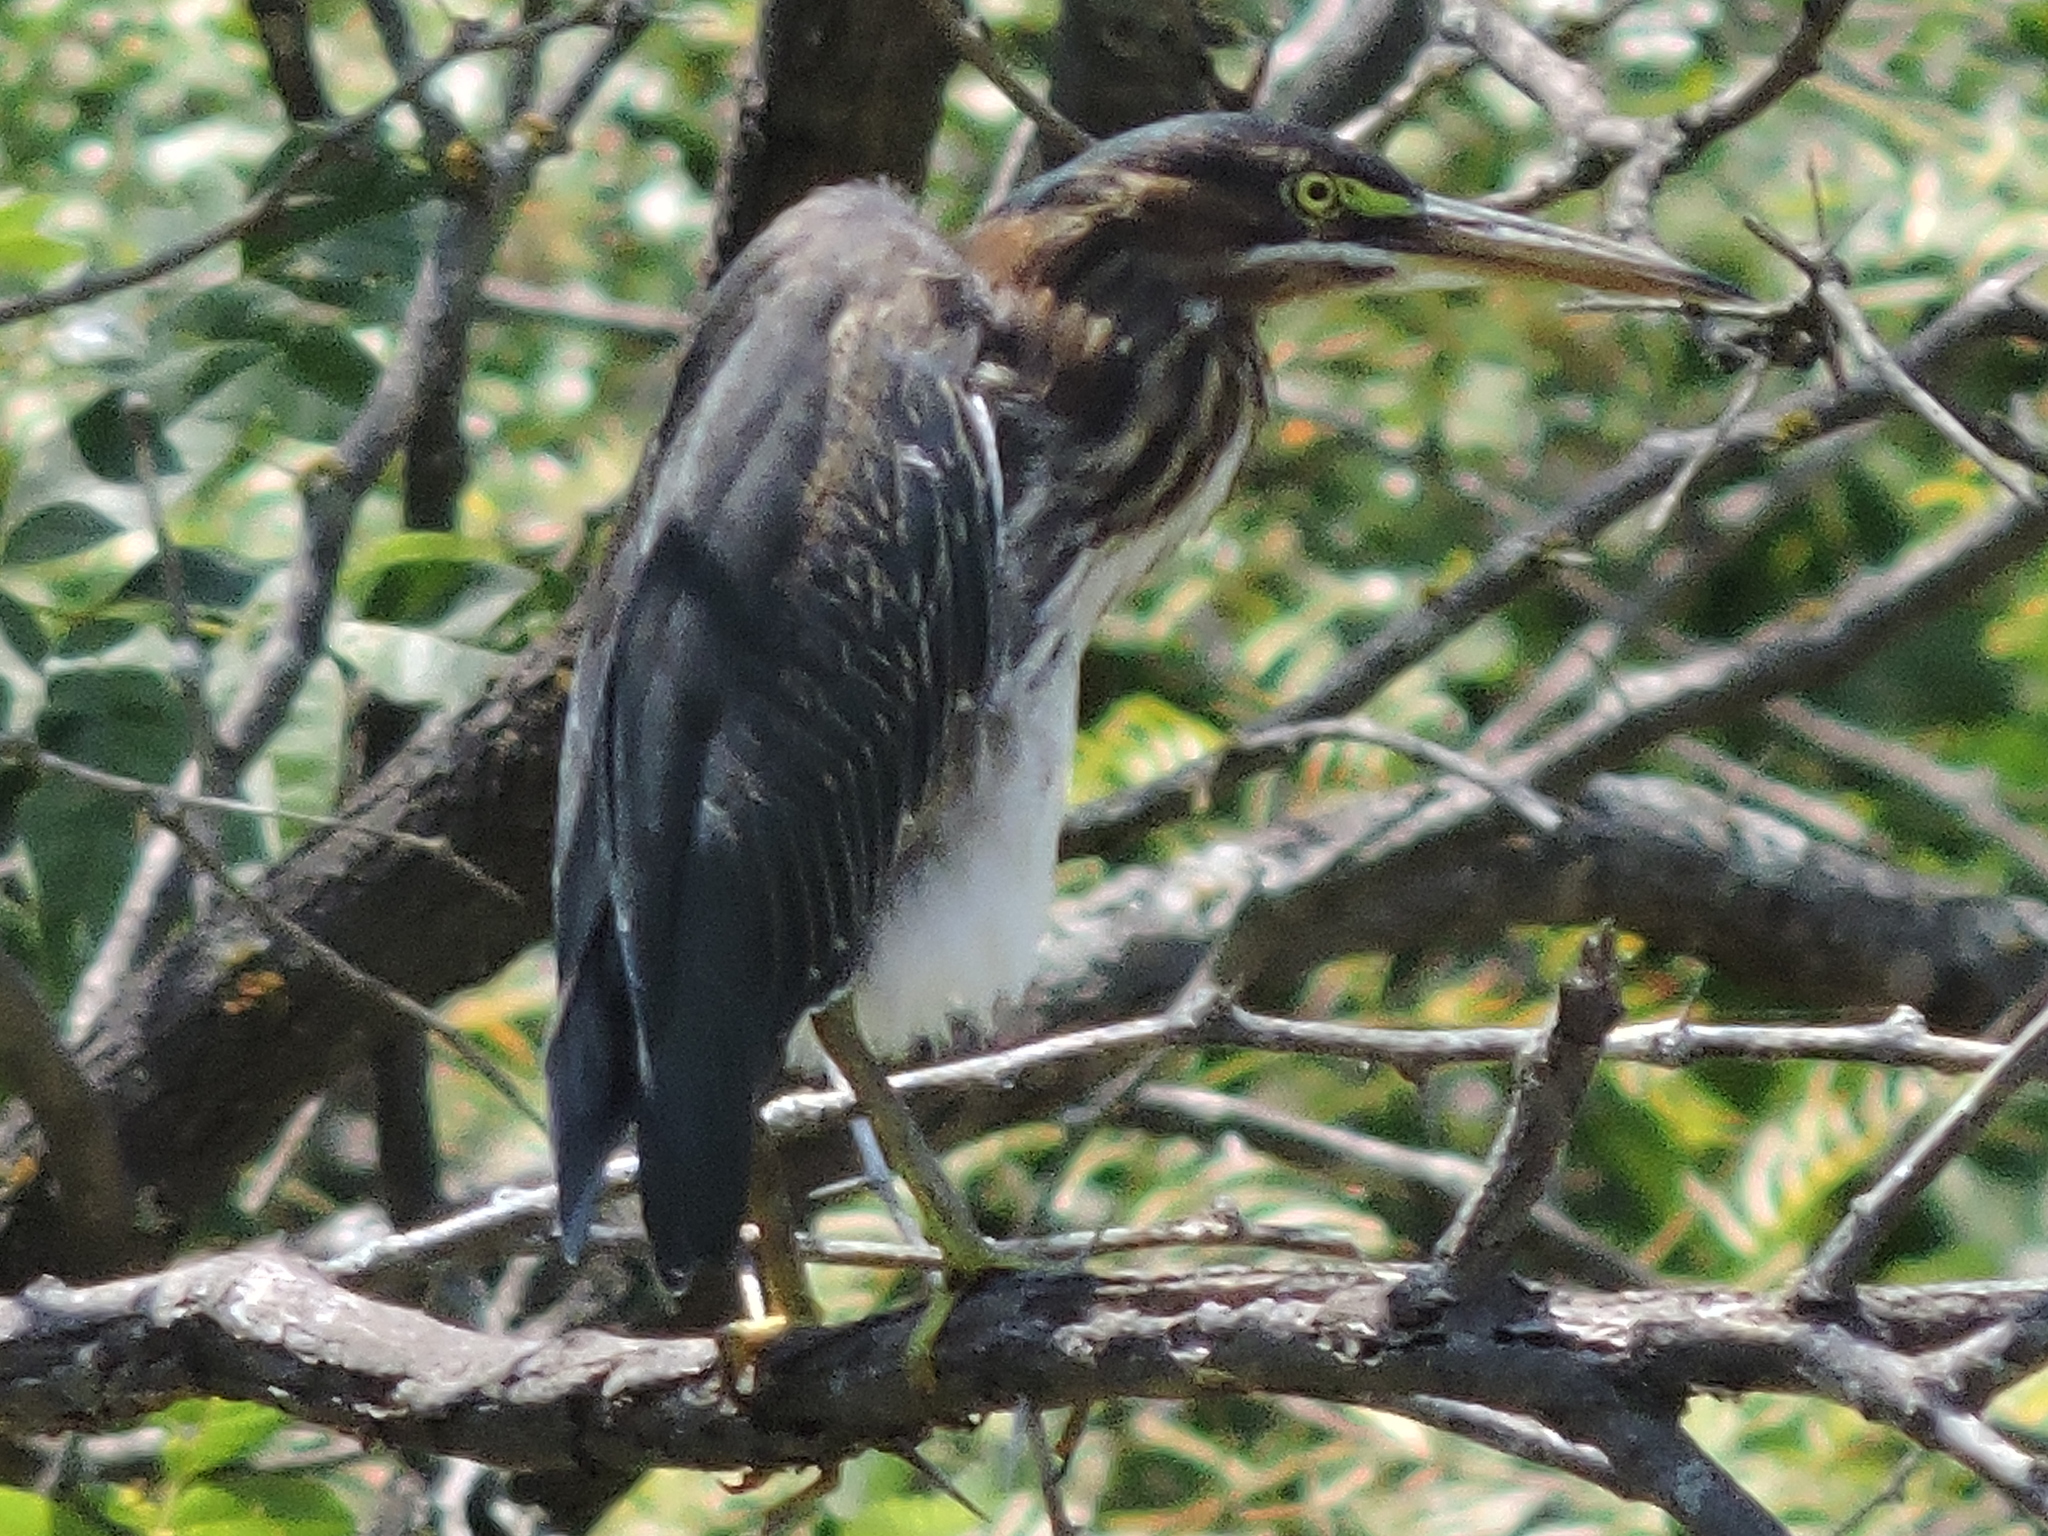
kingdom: Animalia
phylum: Chordata
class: Aves
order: Pelecaniformes
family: Ardeidae
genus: Butorides
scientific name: Butorides virescens
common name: Green heron
